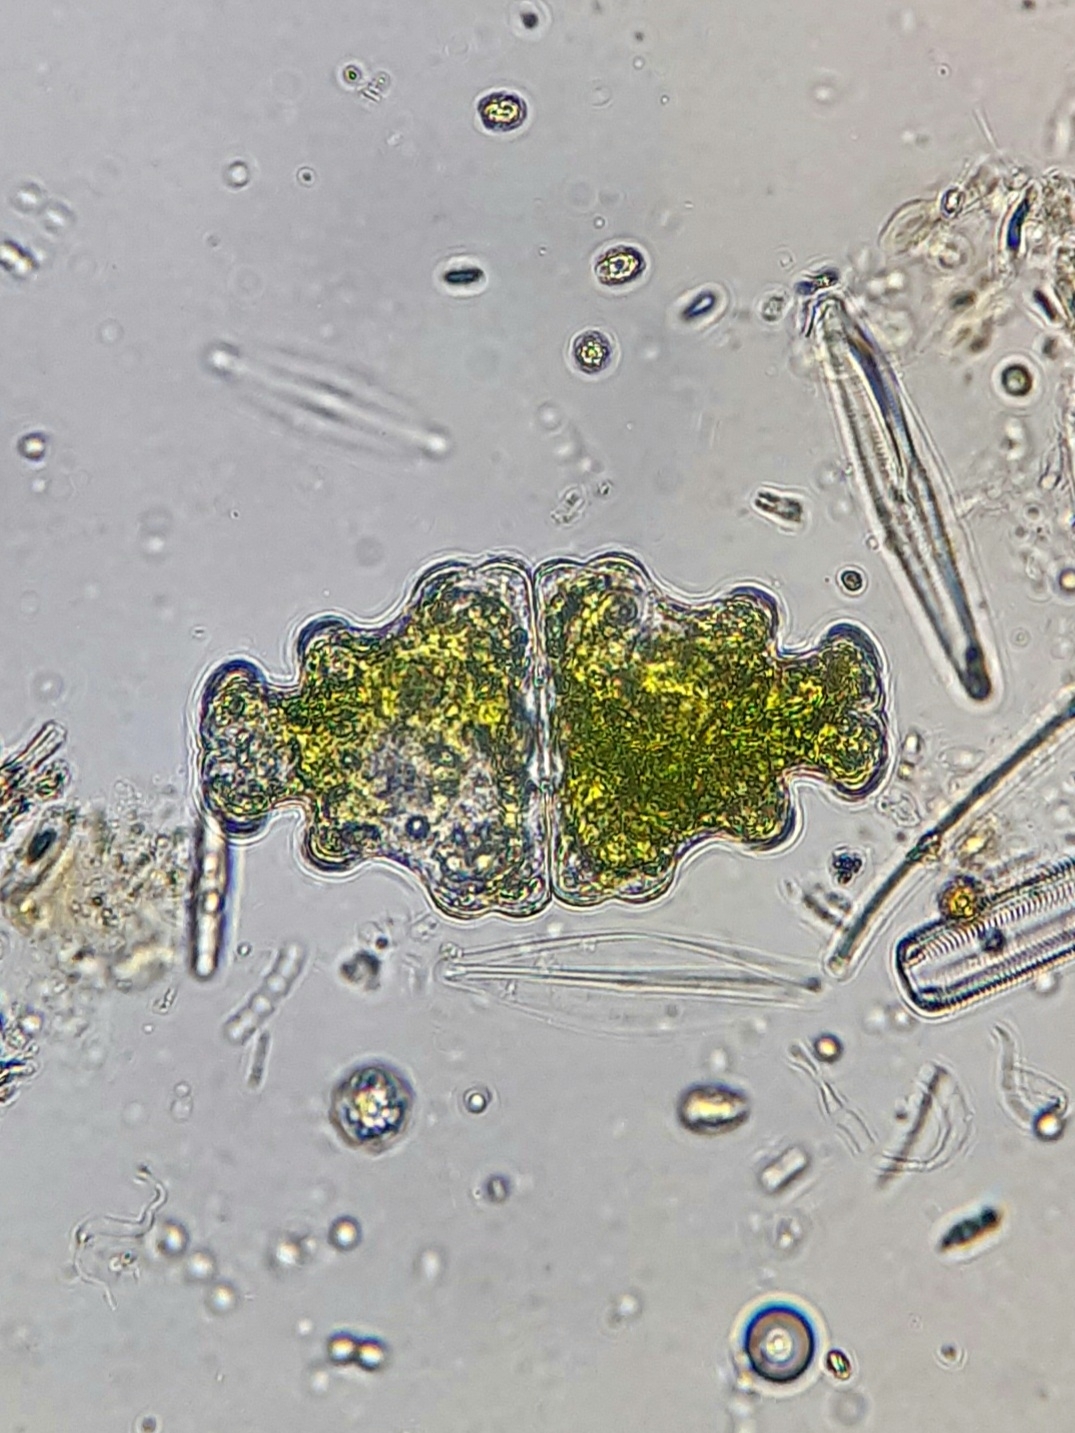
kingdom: Plantae
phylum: Charophyta
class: Conjugatophyceae
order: Desmidiales
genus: Euastrum
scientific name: Euastrum humerosum
